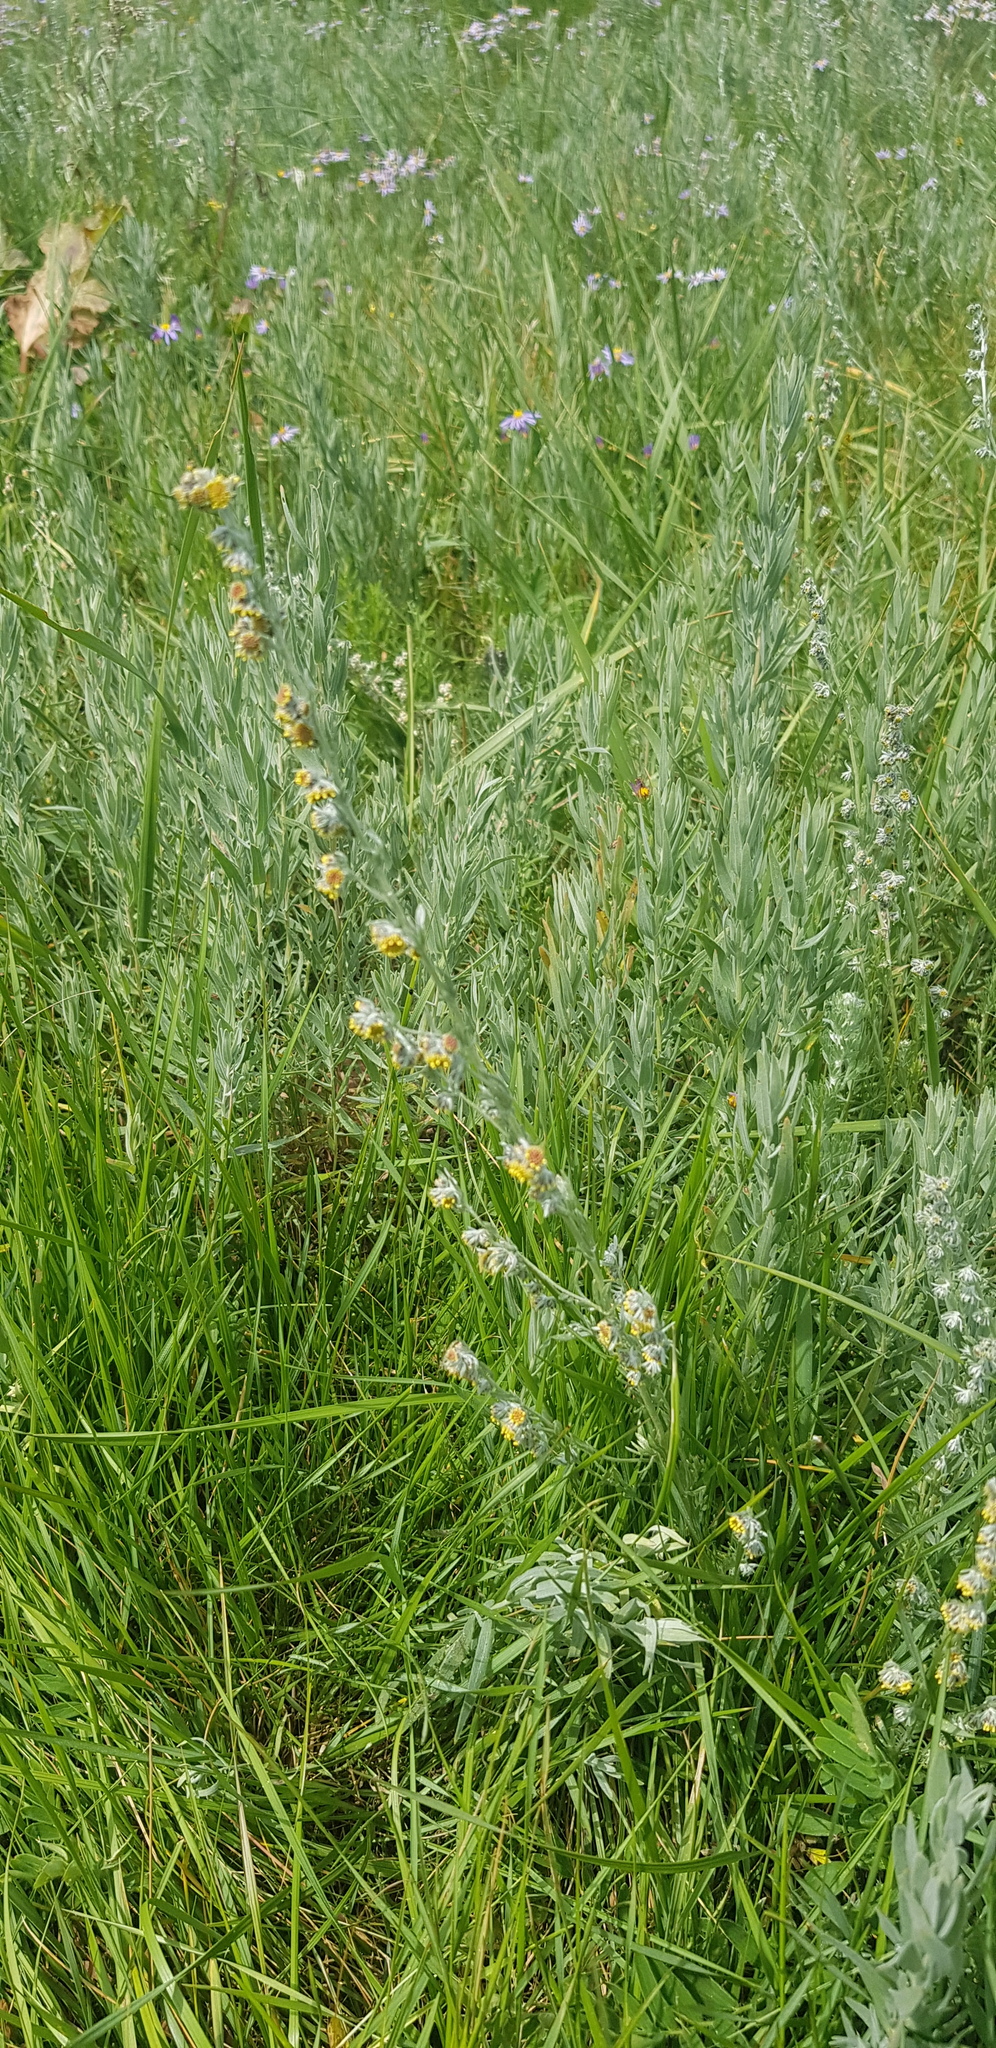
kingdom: Plantae
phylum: Tracheophyta
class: Magnoliopsida
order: Asterales
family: Asteraceae
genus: Artemisia
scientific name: Artemisia vulgaris
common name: Mugwort
